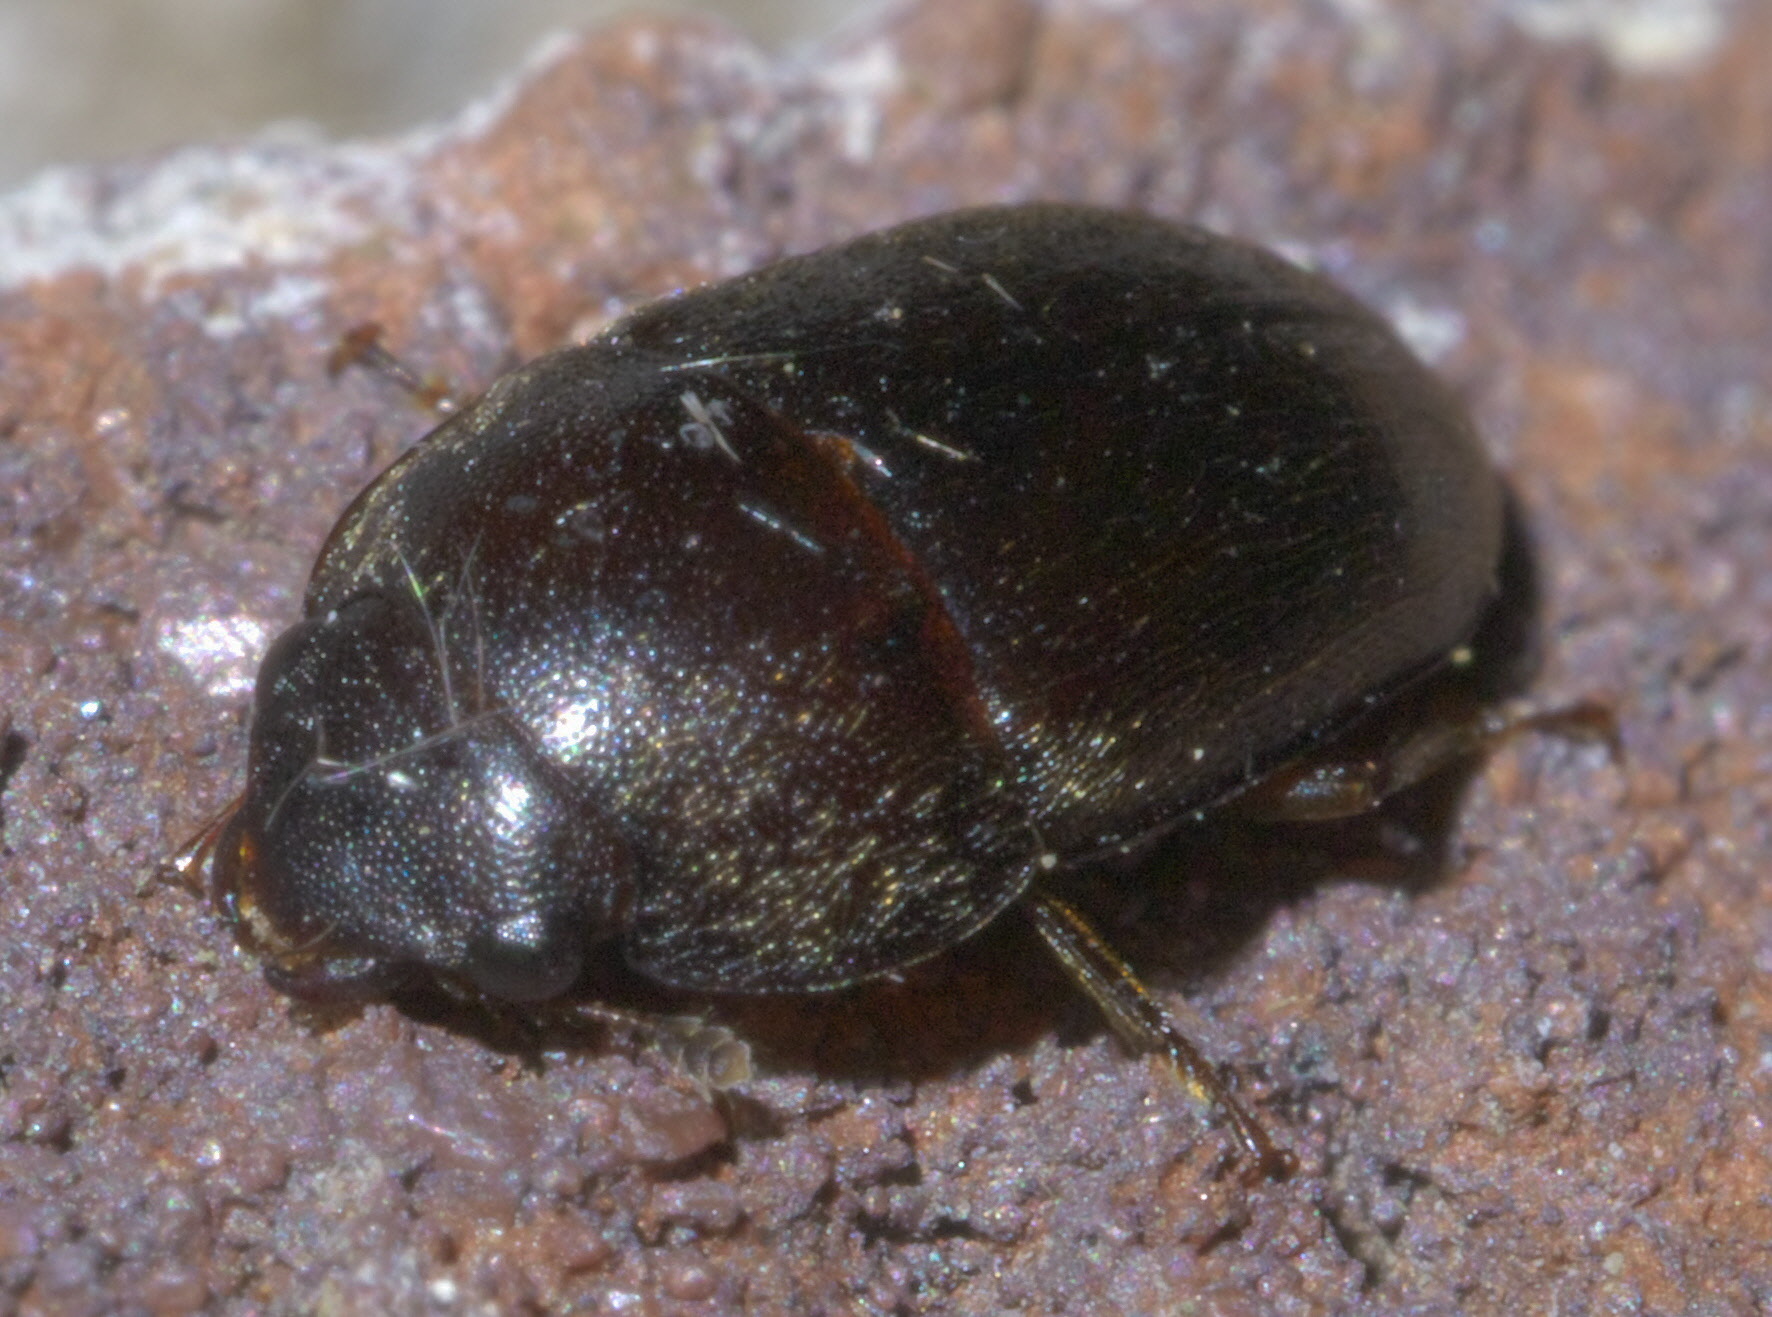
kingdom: Animalia
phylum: Arthropoda
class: Insecta
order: Coleoptera
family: Nitidulidae
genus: Cryptarcha
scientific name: Cryptarcha ampla
